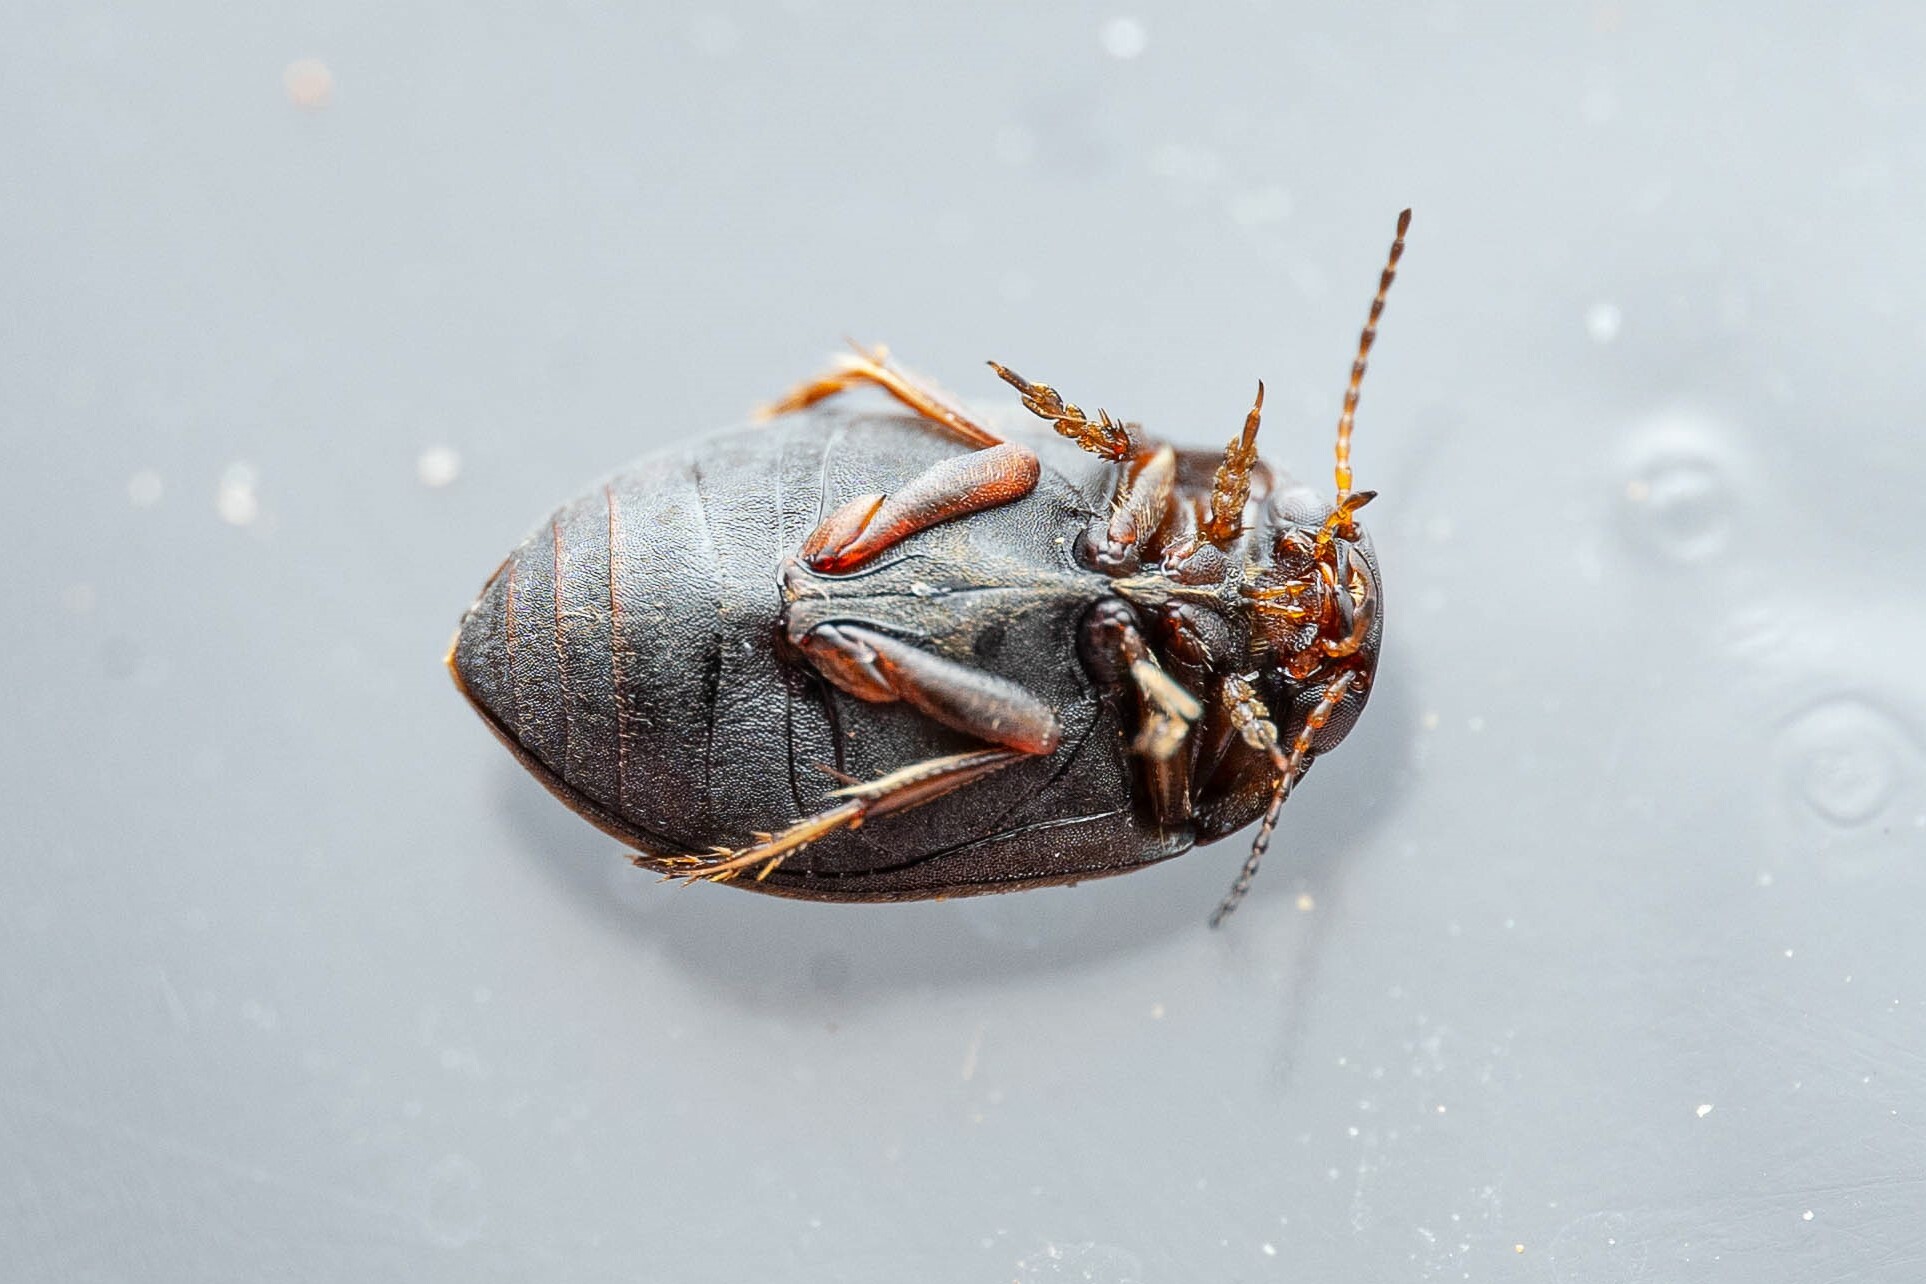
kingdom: Animalia
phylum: Arthropoda
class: Insecta
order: Coleoptera
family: Dytiscidae
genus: Leconectes
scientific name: Leconectes striatellus
